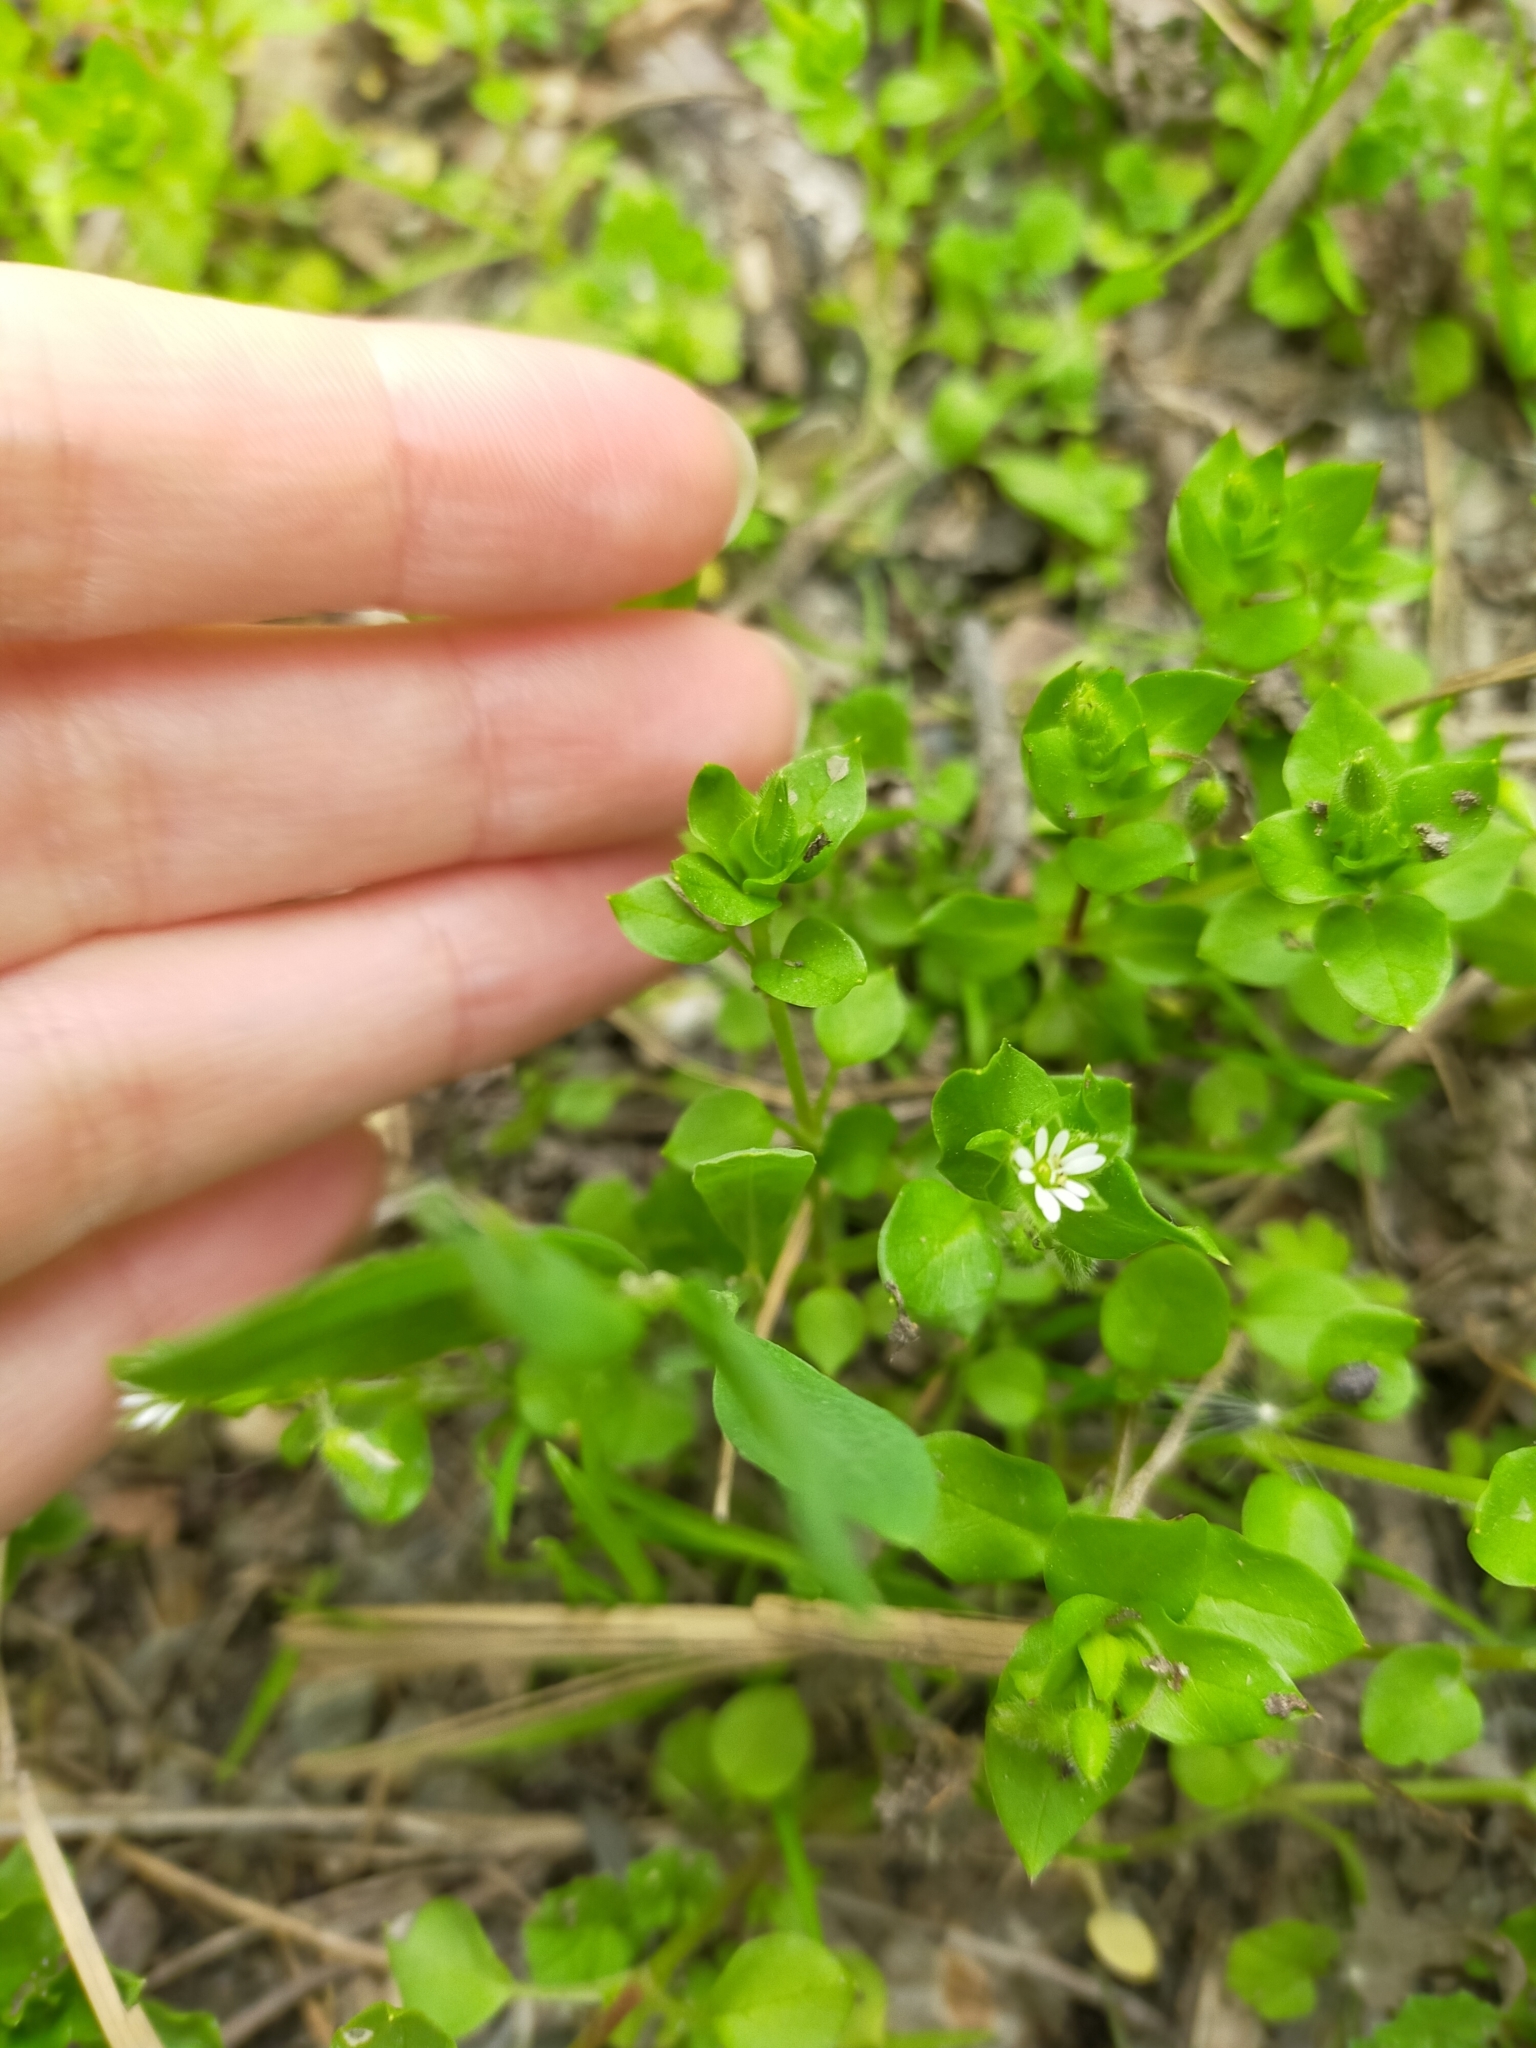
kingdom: Plantae
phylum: Tracheophyta
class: Magnoliopsida
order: Caryophyllales
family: Caryophyllaceae
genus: Stellaria
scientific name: Stellaria media
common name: Common chickweed
